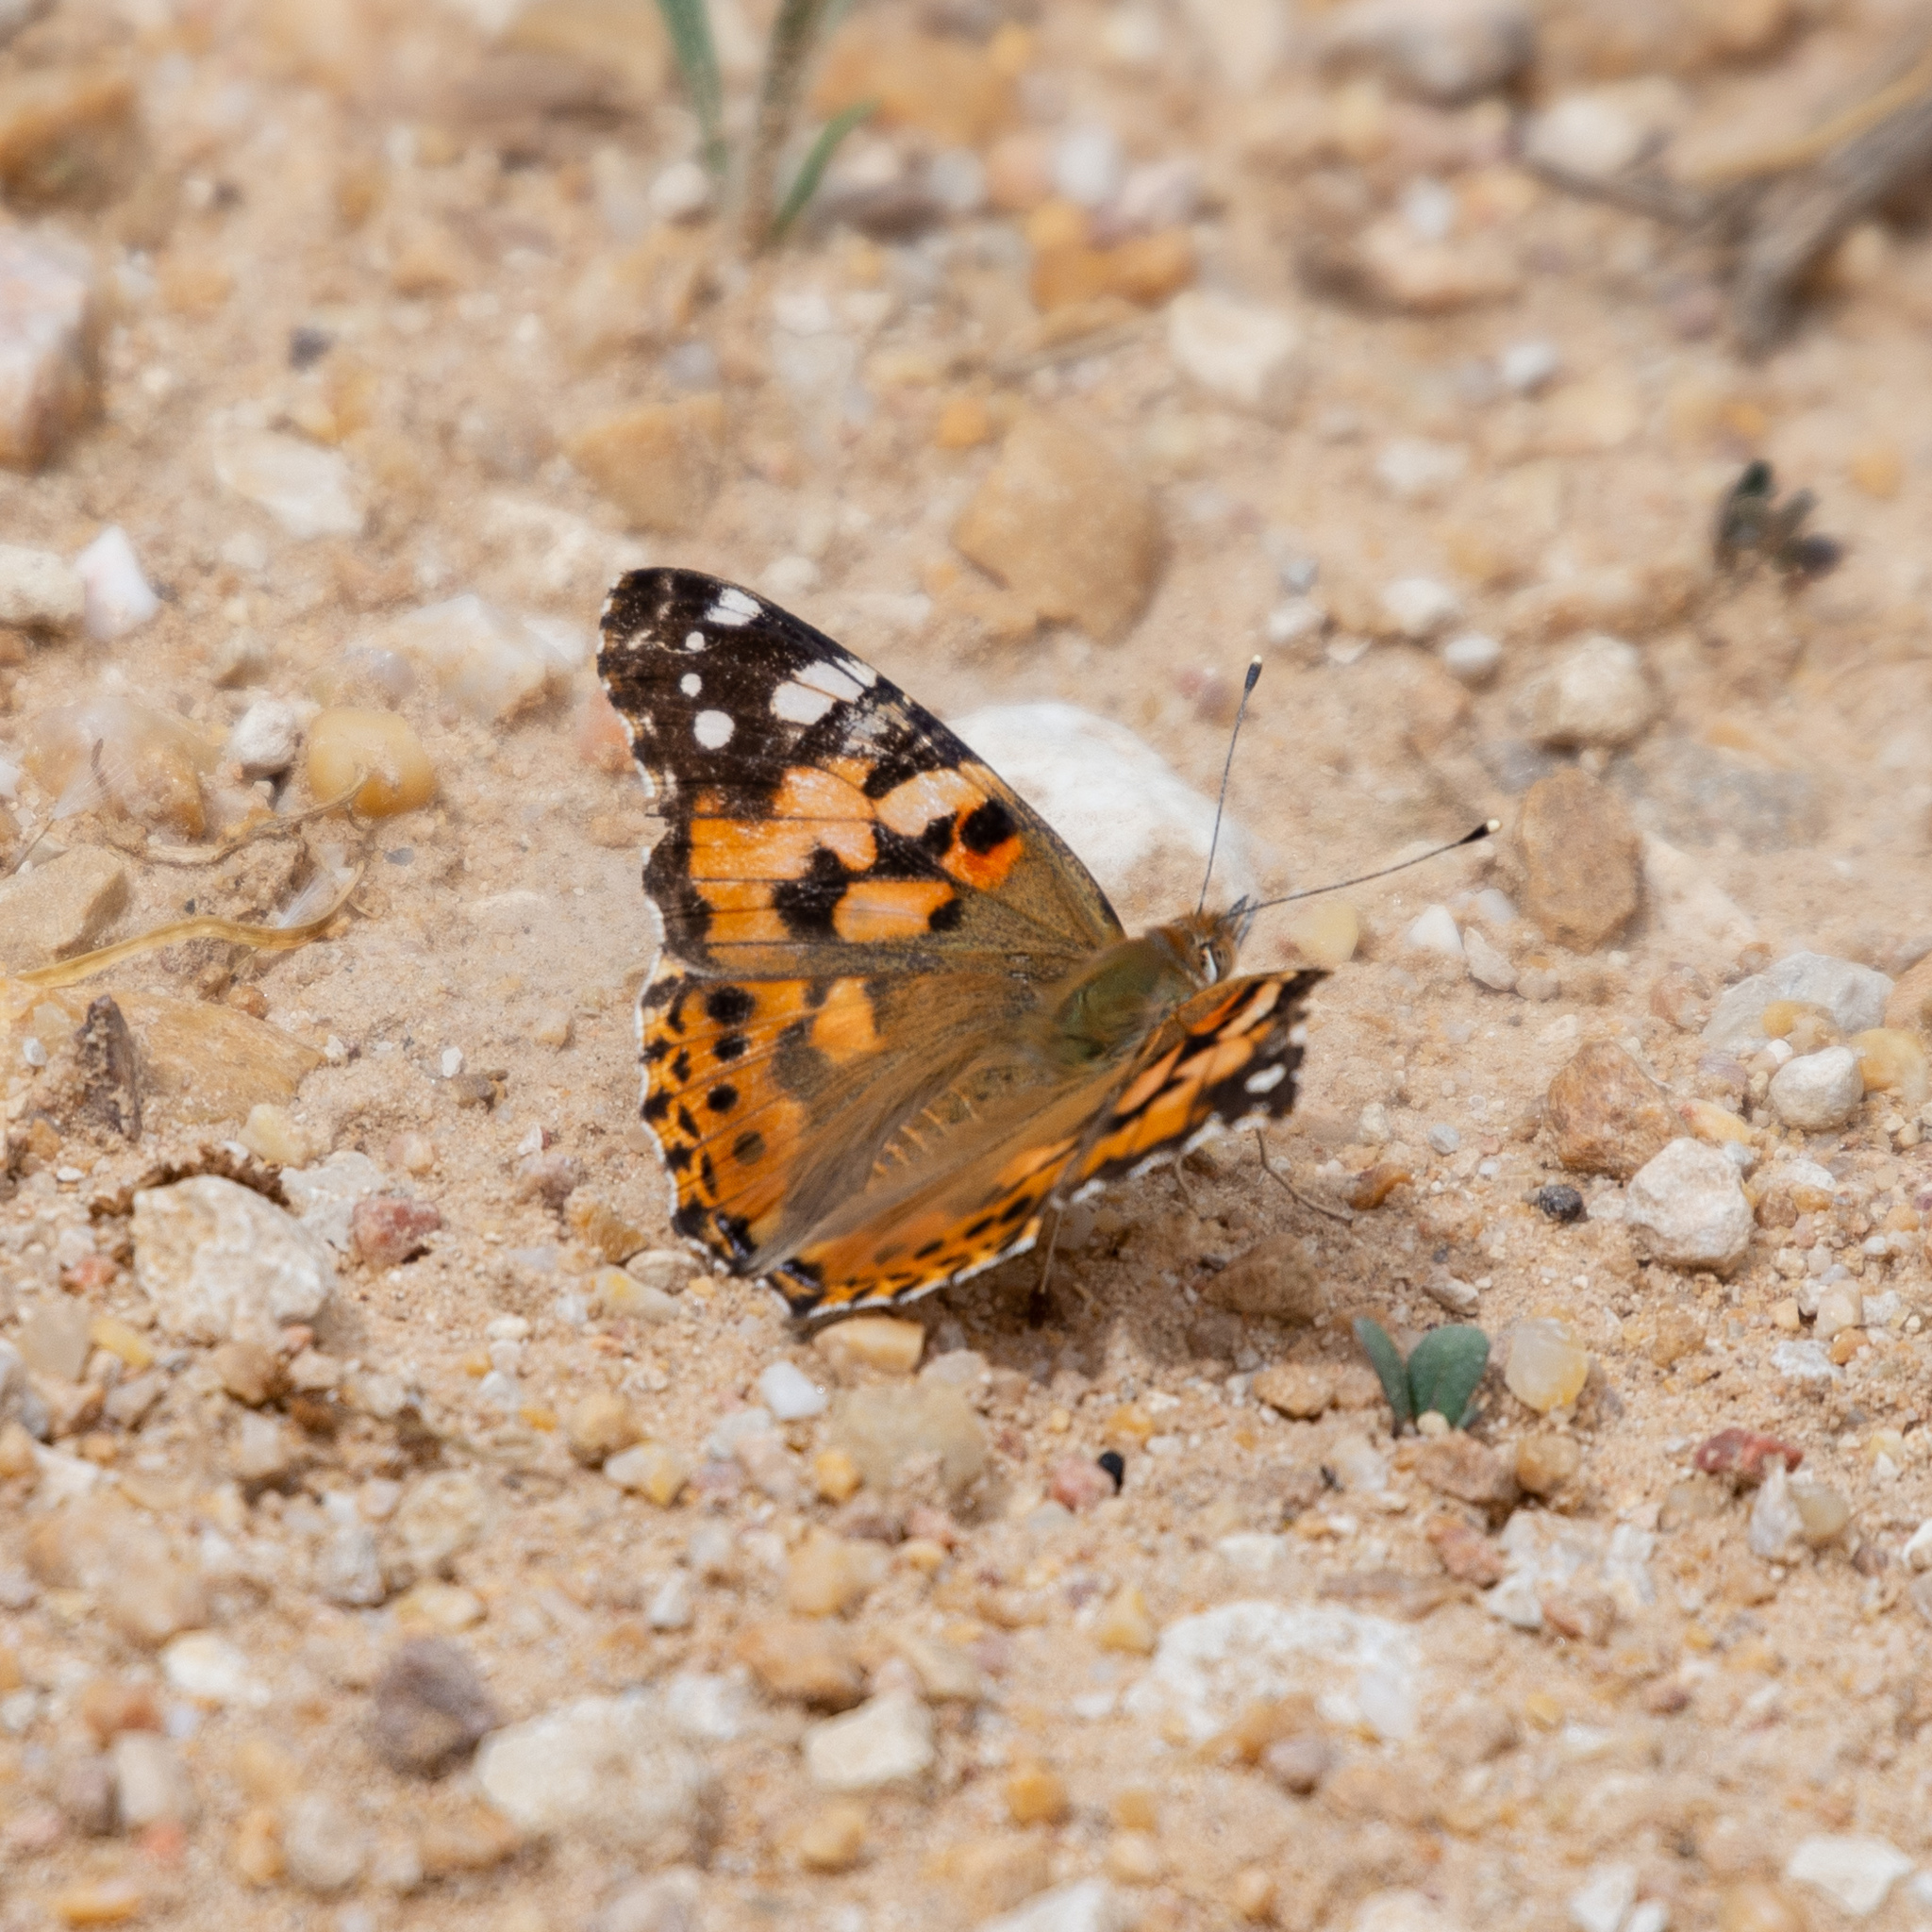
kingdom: Animalia
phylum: Arthropoda
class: Insecta
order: Lepidoptera
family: Nymphalidae
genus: Vanessa
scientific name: Vanessa cardui
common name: Painted lady
